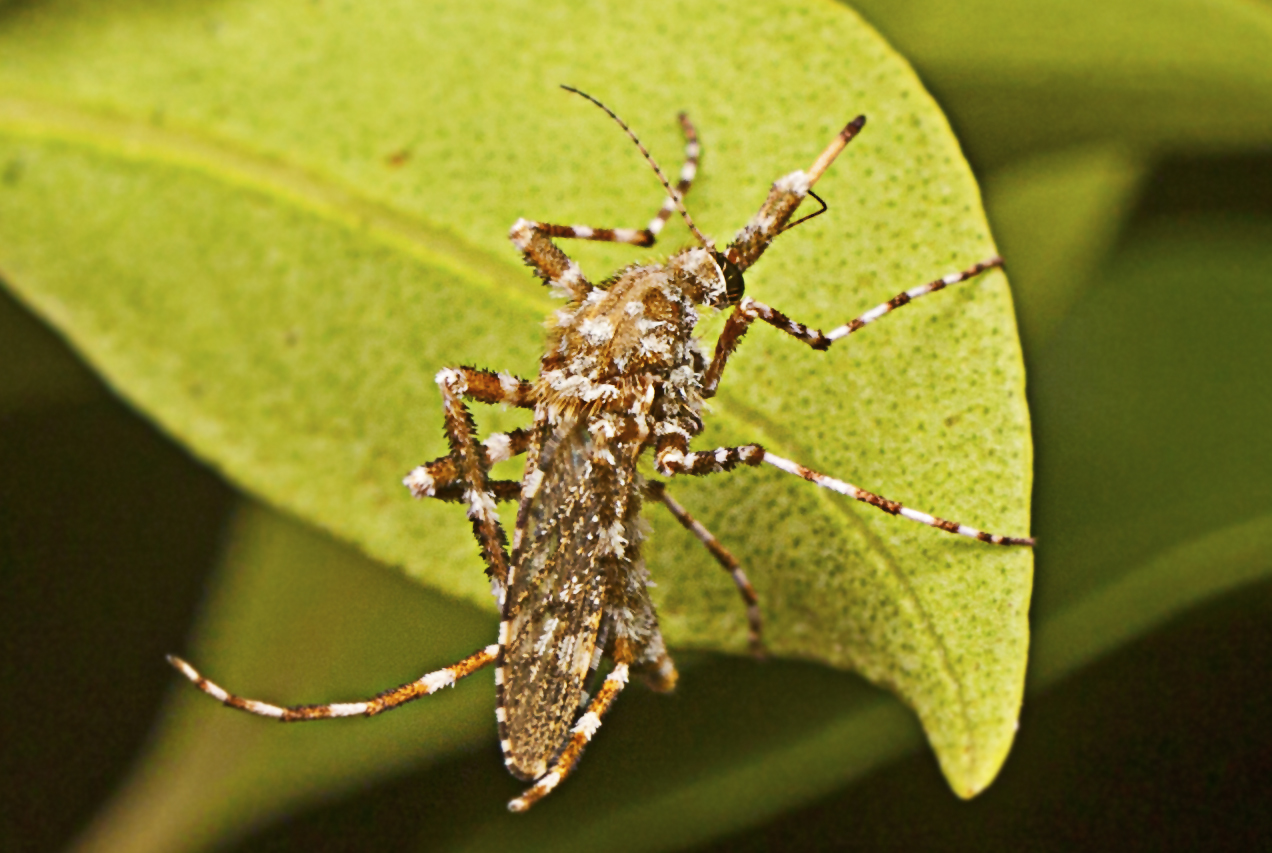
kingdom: Animalia
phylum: Arthropoda
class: Insecta
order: Diptera
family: Culicidae
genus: Aedes
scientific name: Aedes alternans
